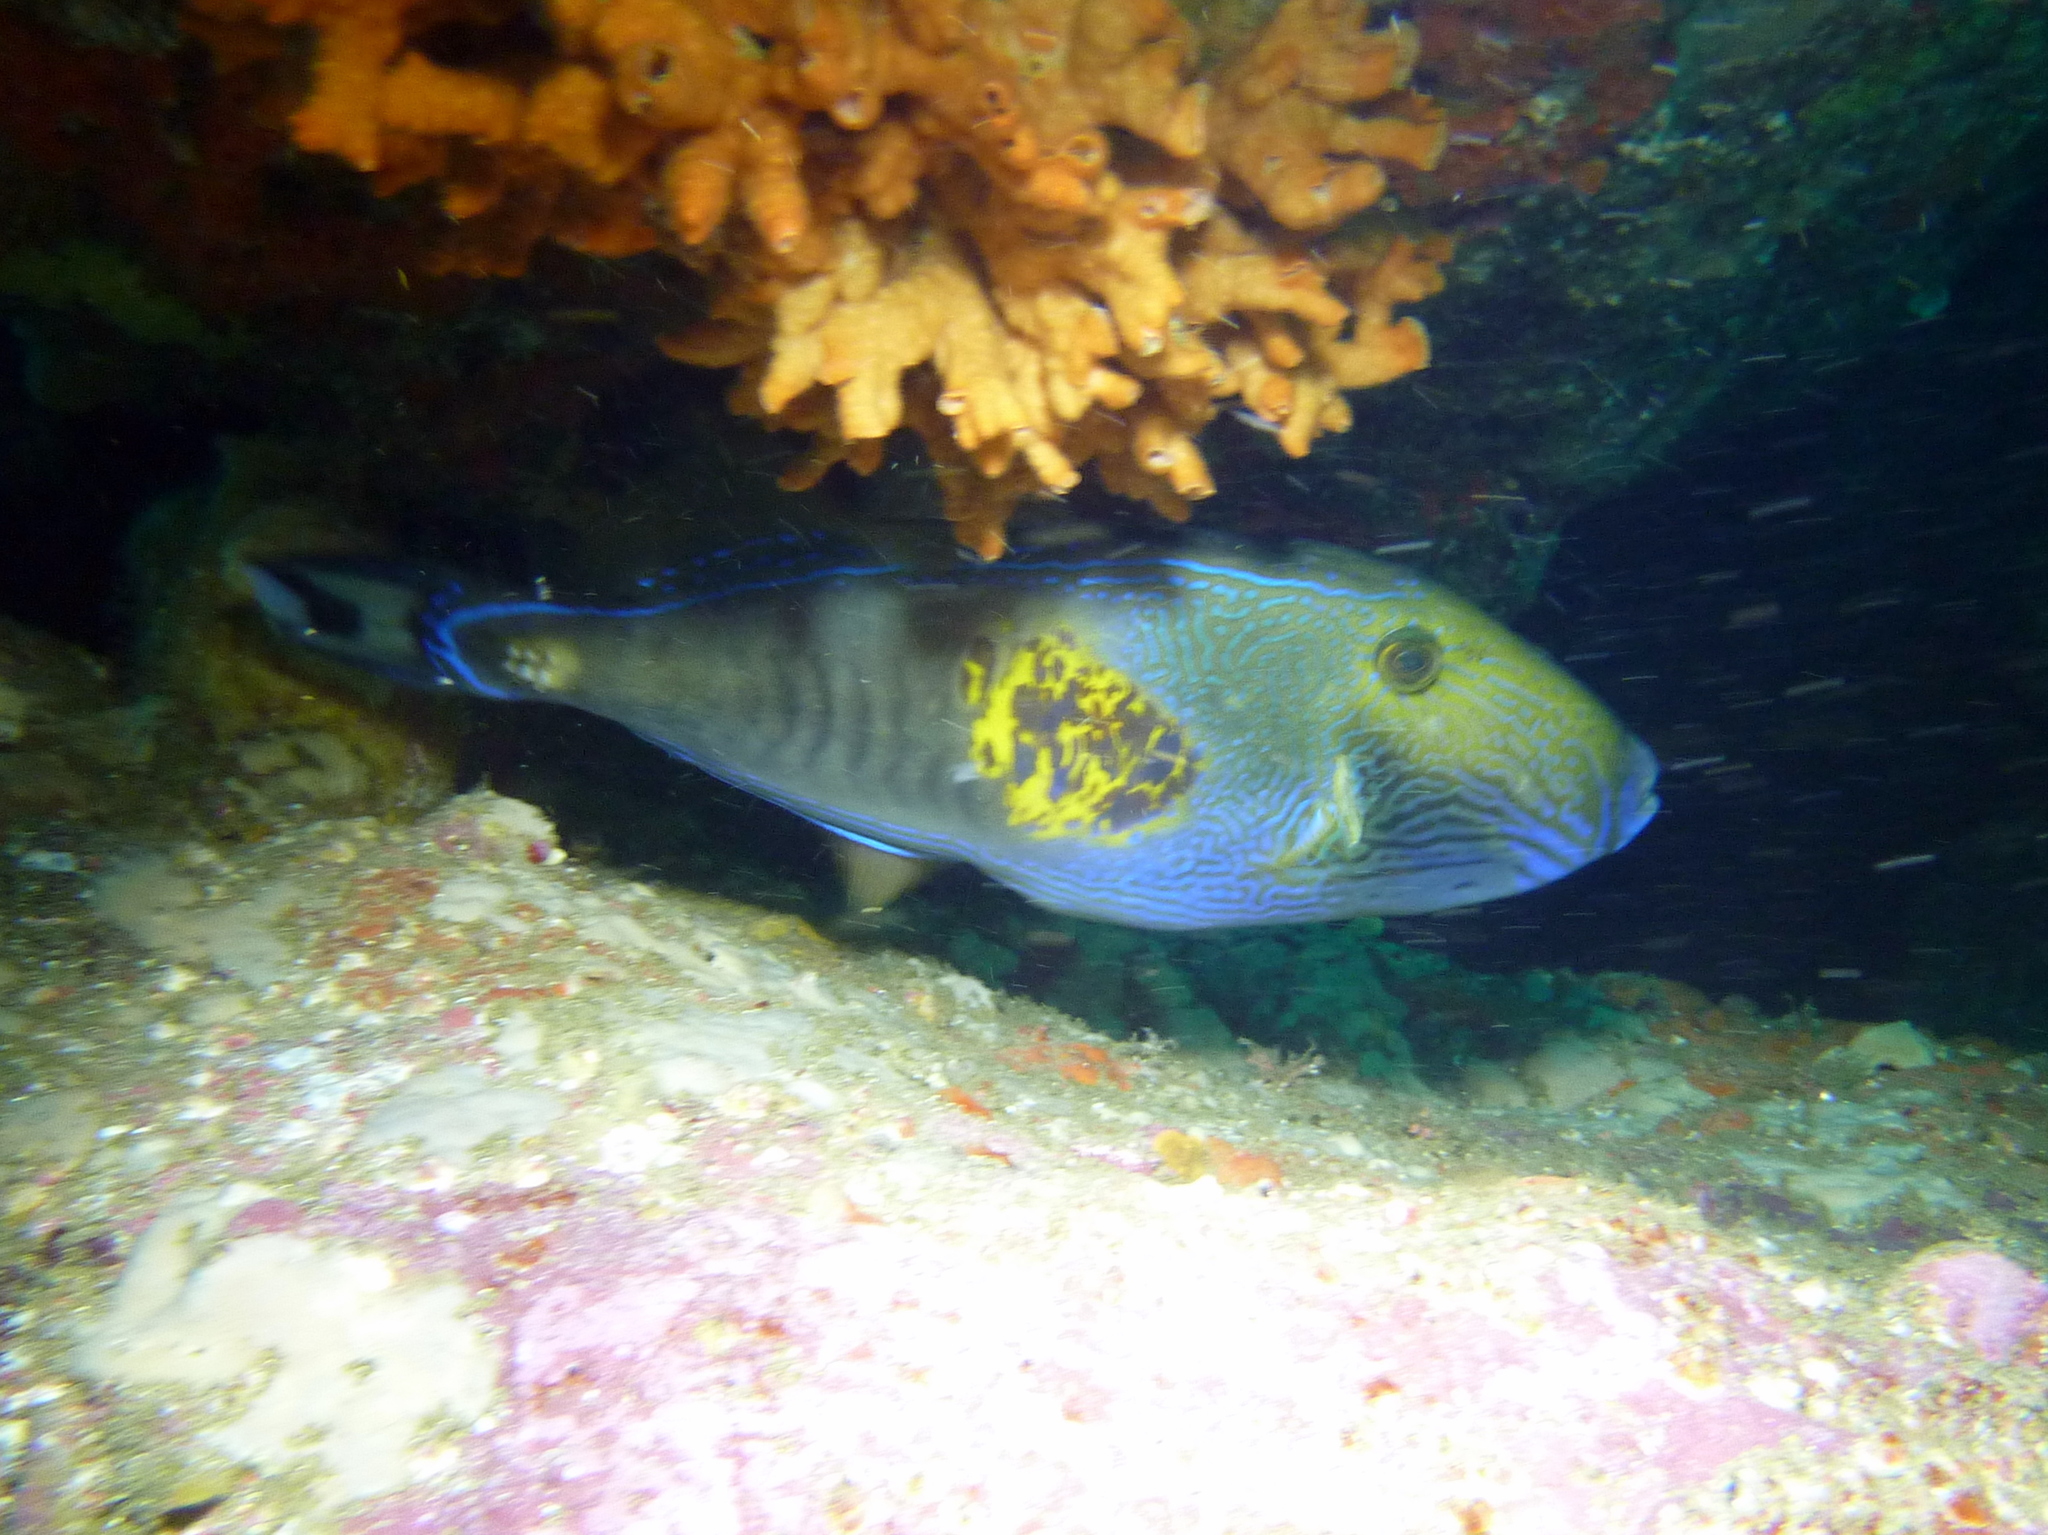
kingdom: Animalia
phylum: Chordata
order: Tetraodontiformes
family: Monacanthidae
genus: Meuschenia
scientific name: Meuschenia freycineti
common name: Freycinet's leatherjacket
